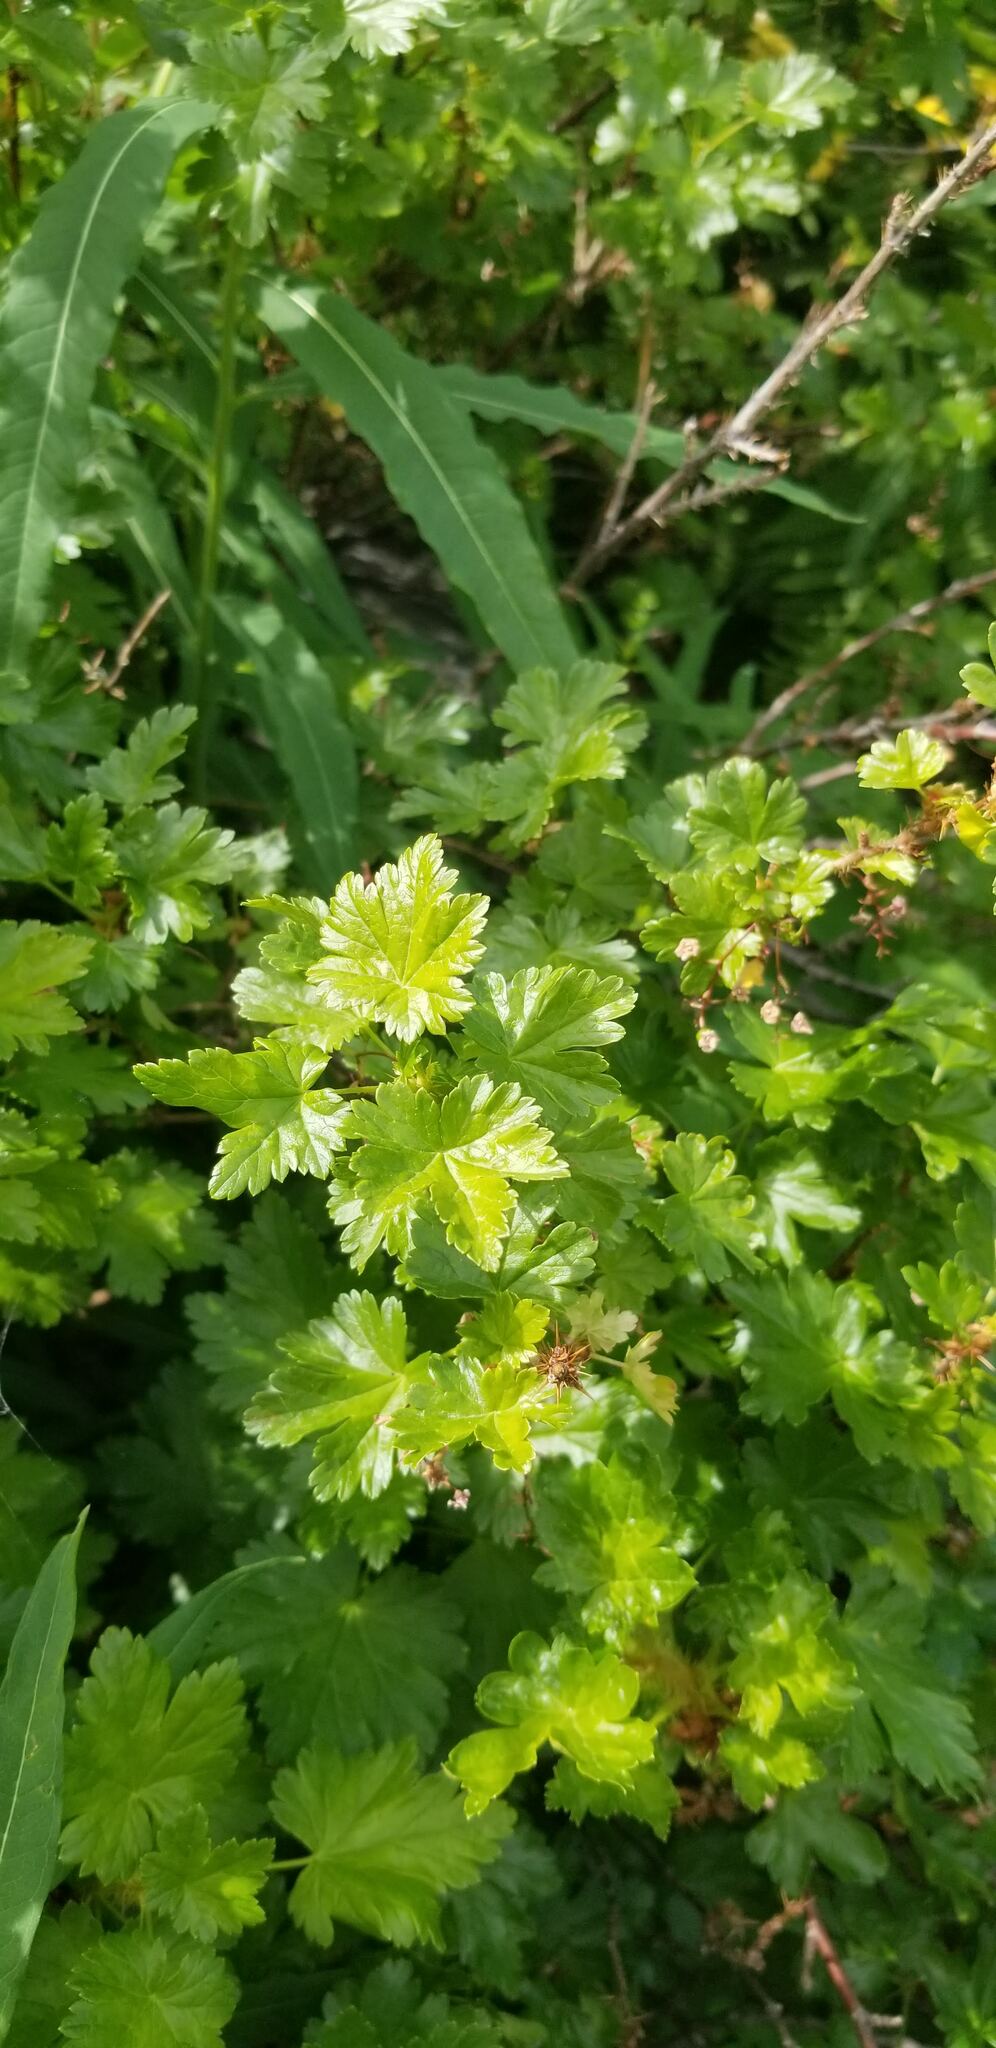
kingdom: Plantae
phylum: Tracheophyta
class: Magnoliopsida
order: Saxifragales
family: Grossulariaceae
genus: Ribes
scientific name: Ribes lacustre
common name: Black gooseberry
